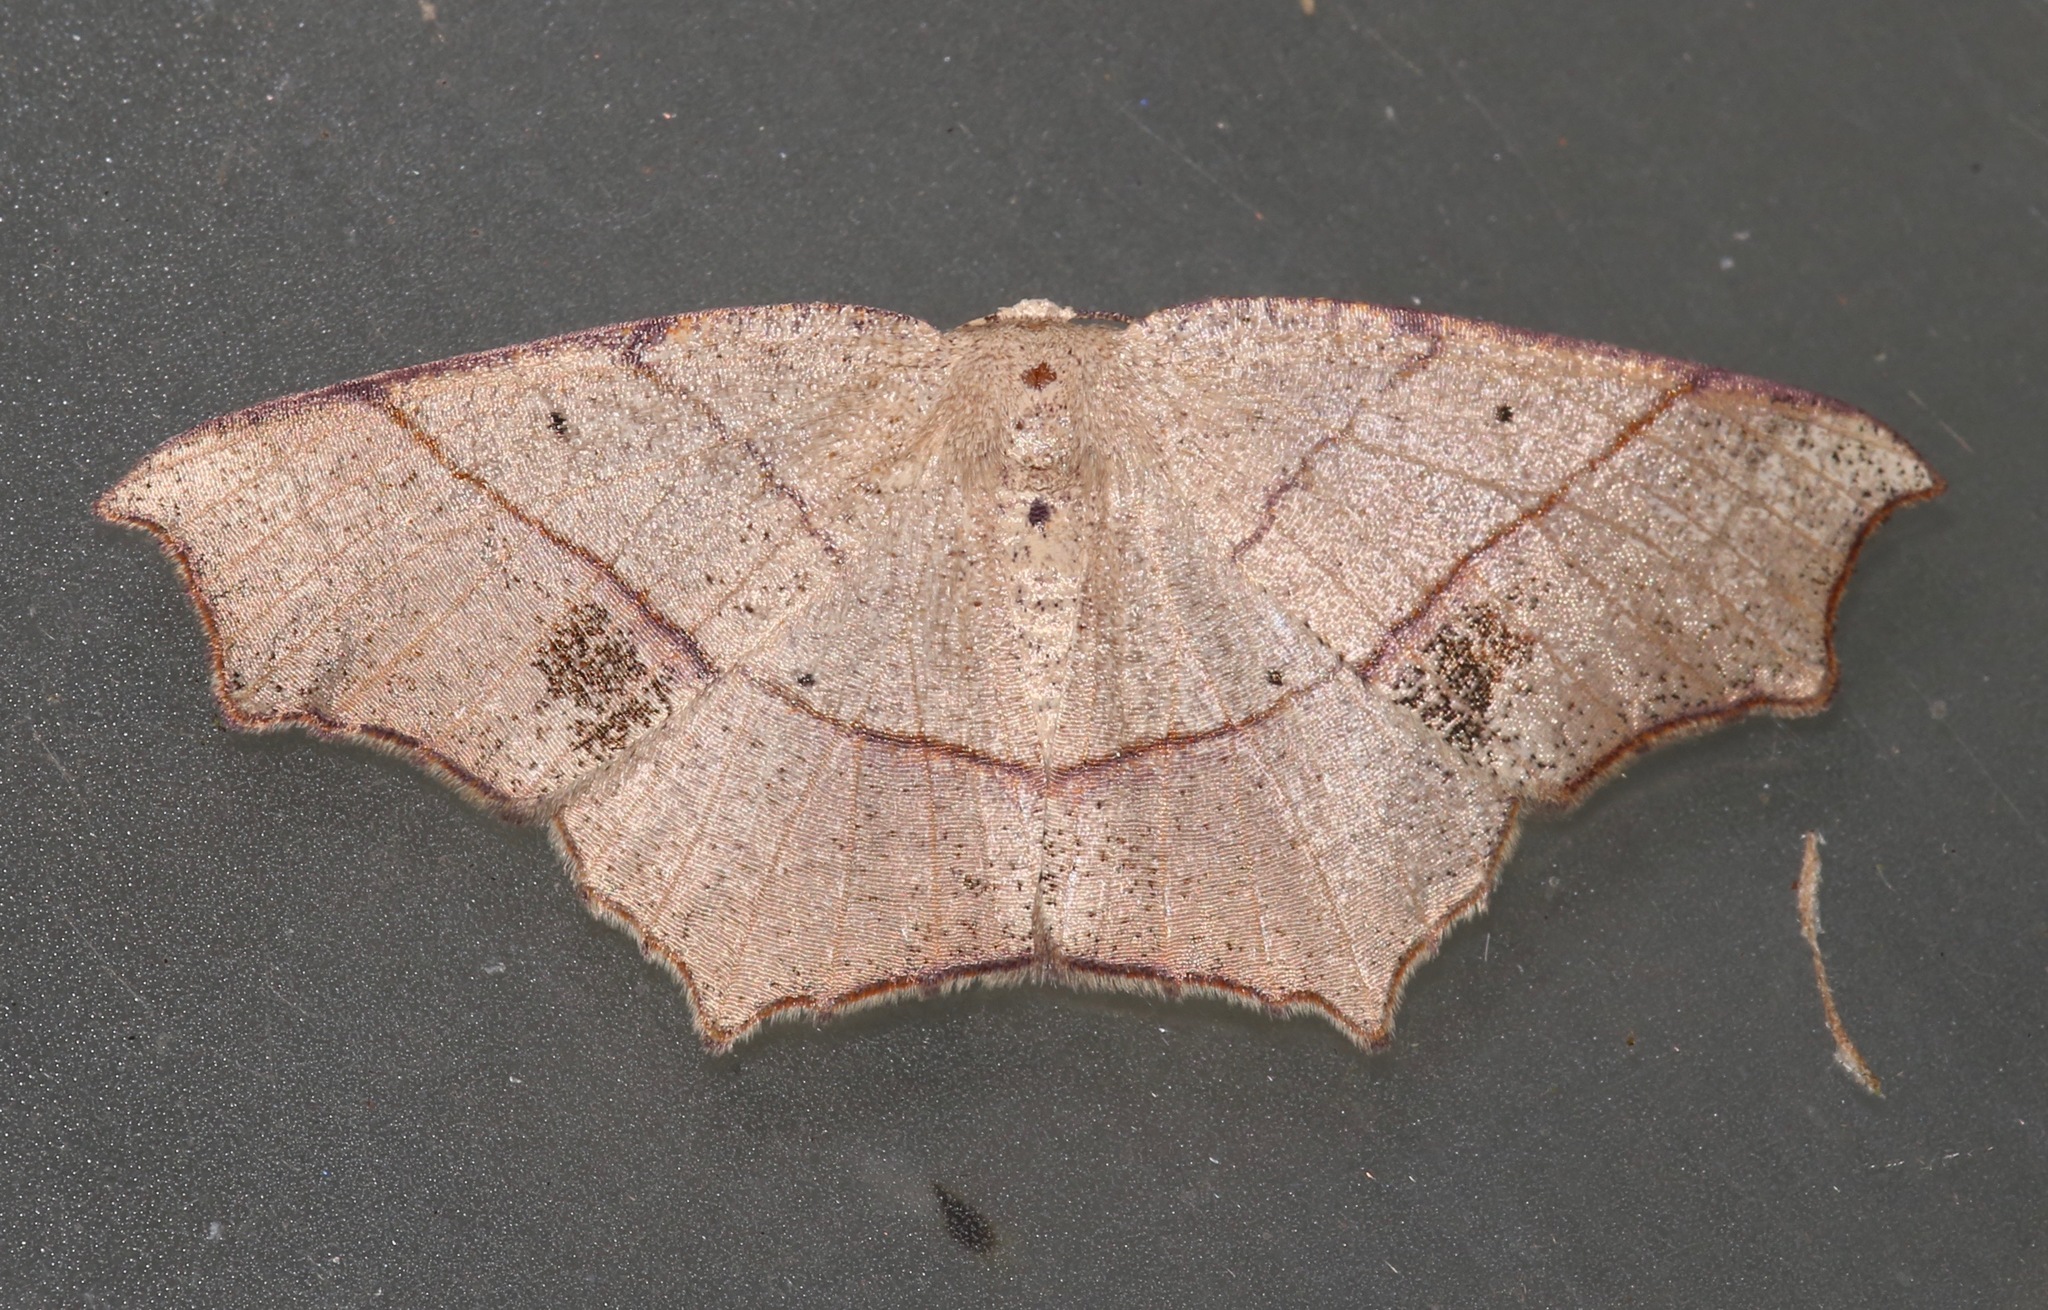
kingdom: Animalia
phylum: Arthropoda
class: Insecta
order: Lepidoptera
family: Geometridae
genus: Besma
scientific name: Besma quercivoraria
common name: Oak besma
